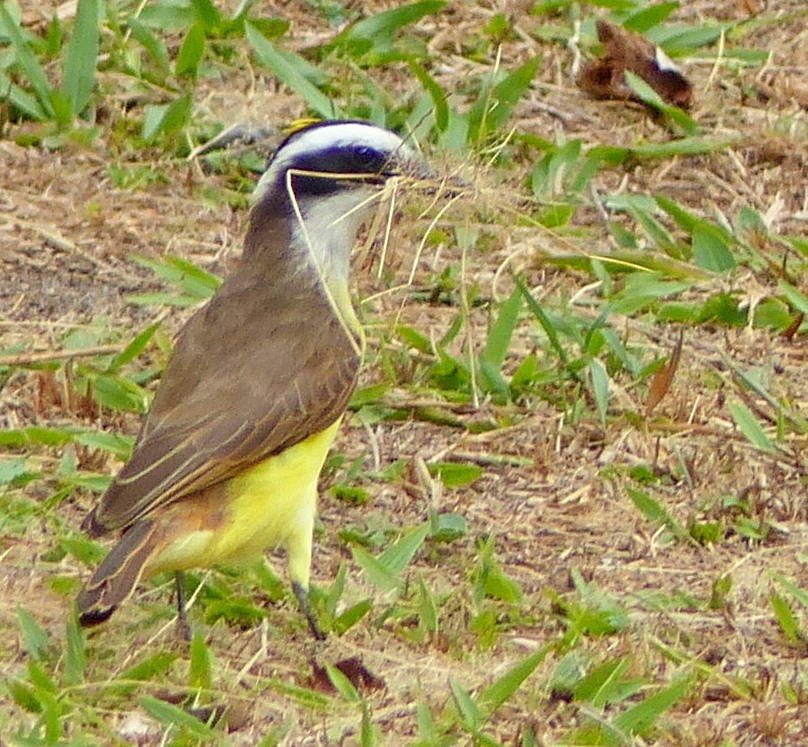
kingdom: Animalia
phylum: Chordata
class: Aves
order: Passeriformes
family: Tyrannidae
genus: Pitangus
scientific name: Pitangus sulphuratus
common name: Great kiskadee
